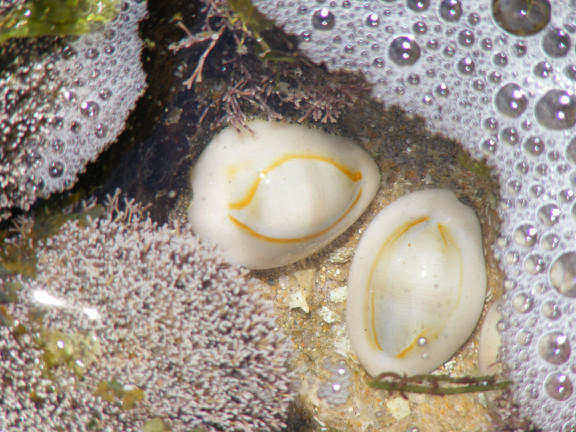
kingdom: Animalia
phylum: Mollusca
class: Gastropoda
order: Littorinimorpha
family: Cypraeidae
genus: Monetaria
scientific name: Monetaria annulus
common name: Ring cowrie
